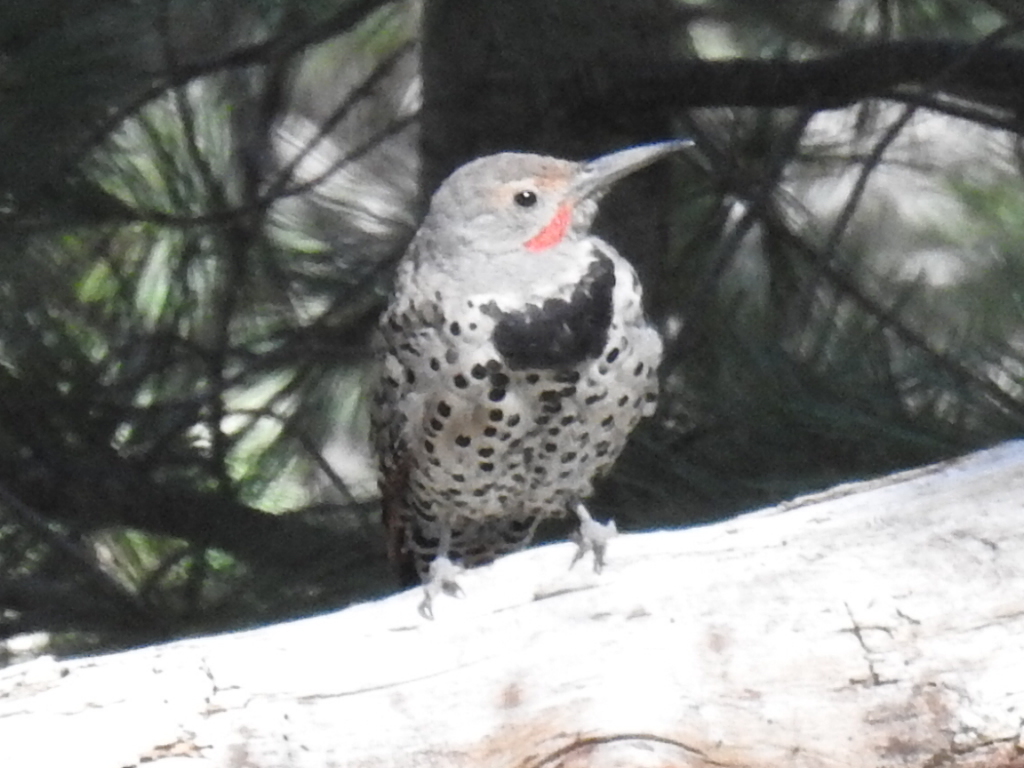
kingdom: Animalia
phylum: Chordata
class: Aves
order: Piciformes
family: Picidae
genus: Colaptes
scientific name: Colaptes auratus
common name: Northern flicker
